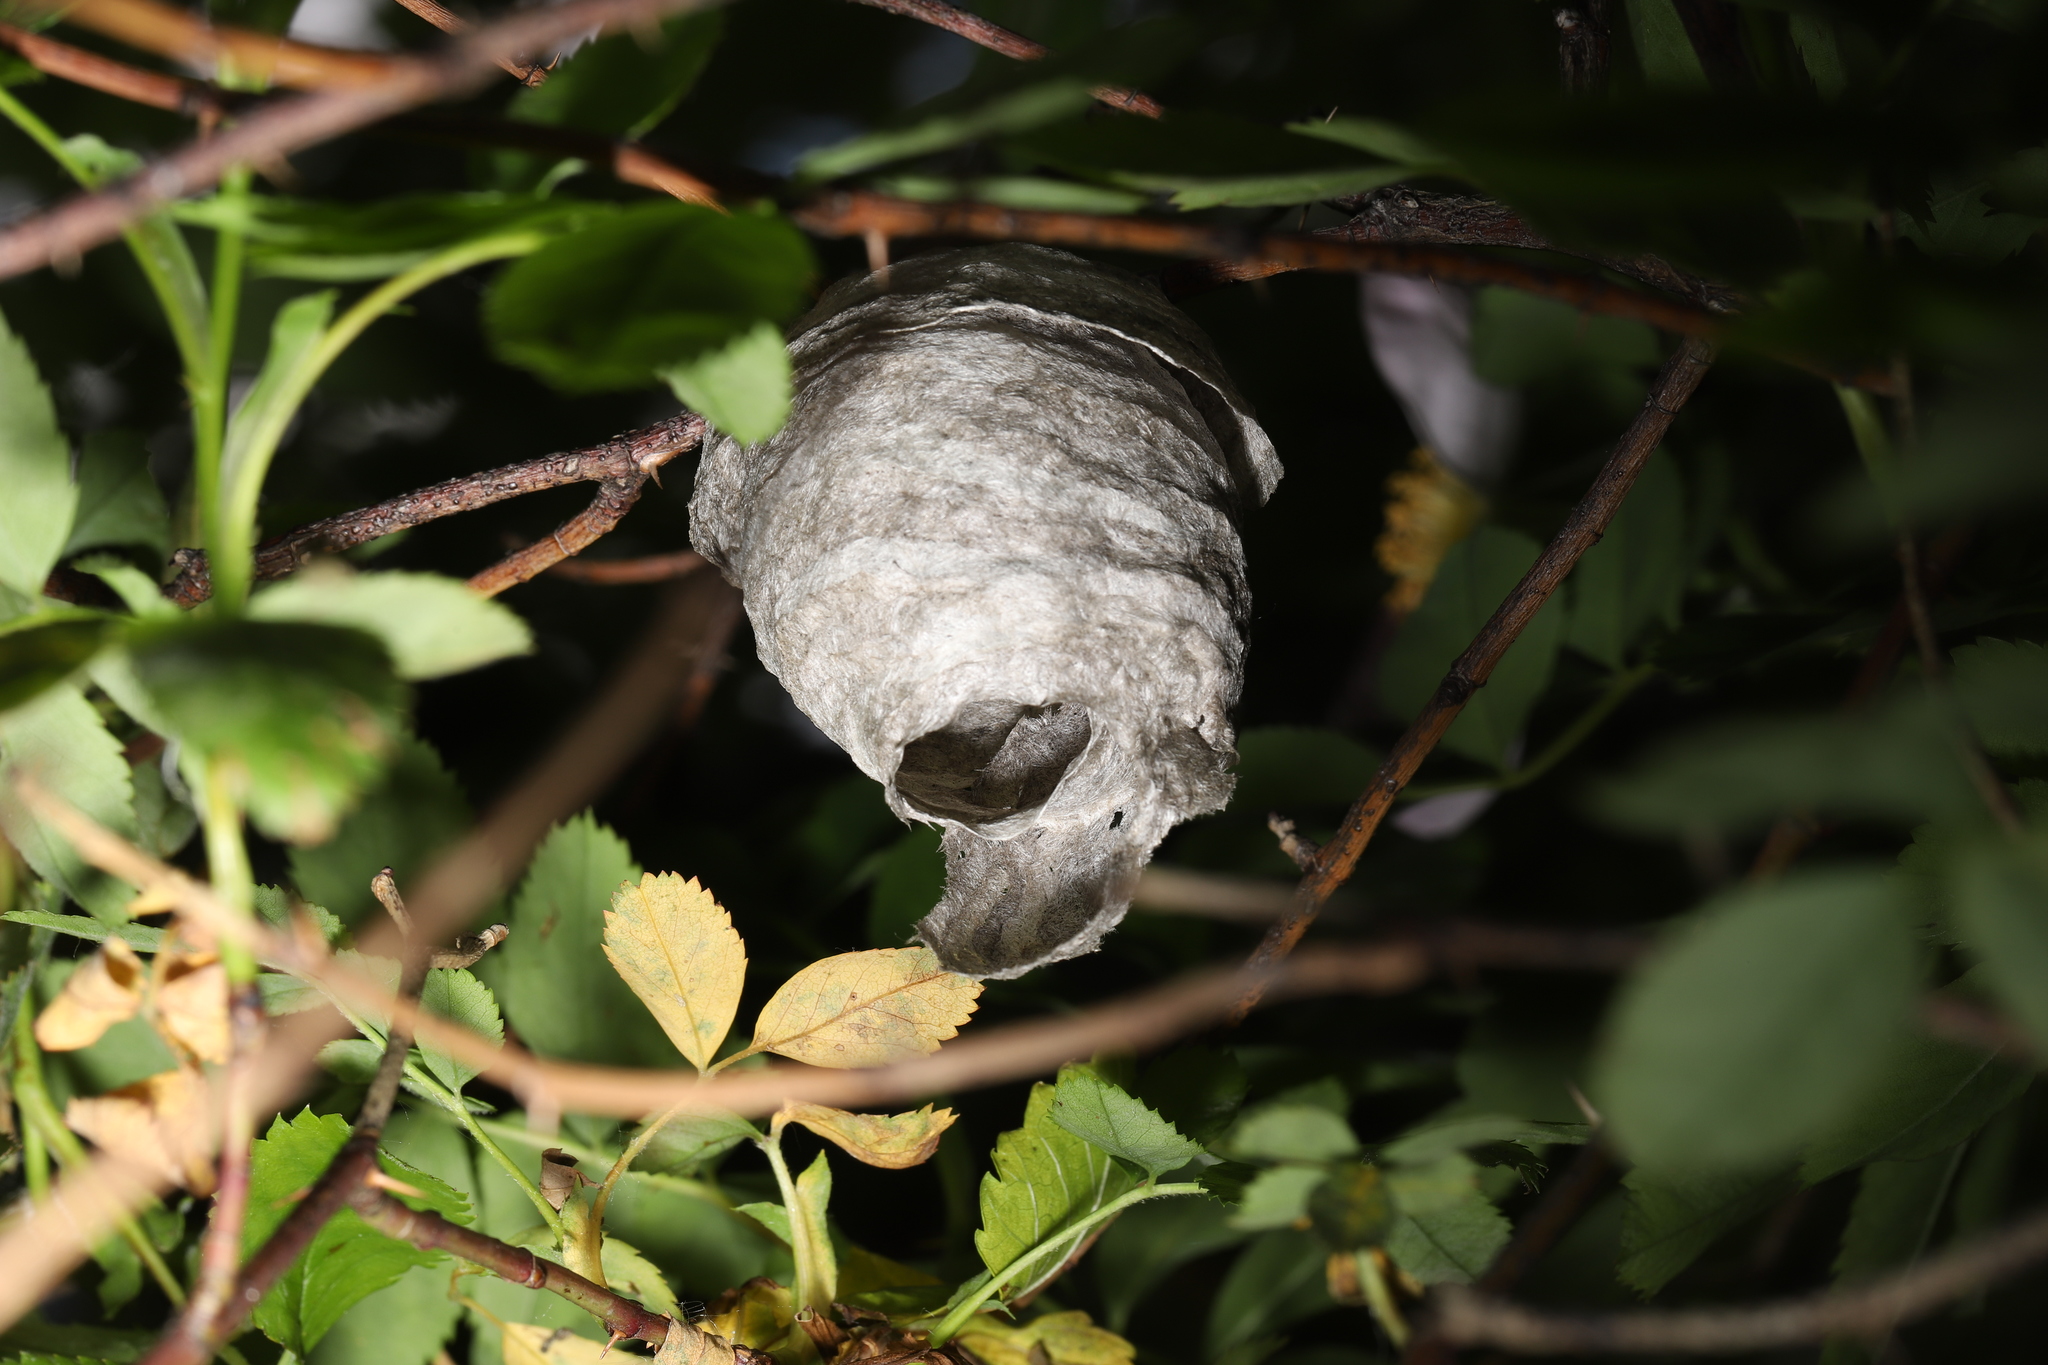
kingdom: Animalia
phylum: Arthropoda
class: Insecta
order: Hymenoptera
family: Vespidae
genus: Dolichovespula
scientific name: Dolichovespula maculata
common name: Bald-faced hornet
